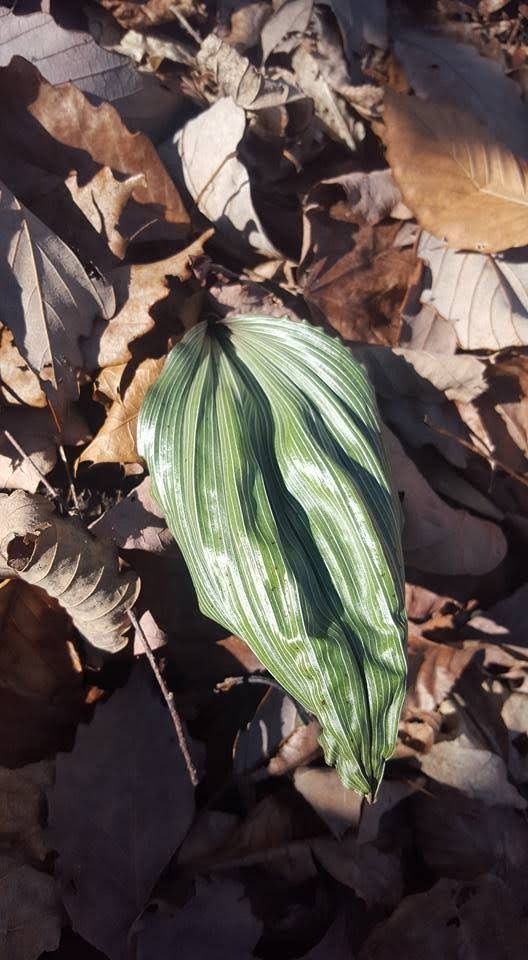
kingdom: Plantae
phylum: Tracheophyta
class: Liliopsida
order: Asparagales
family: Orchidaceae
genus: Aplectrum
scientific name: Aplectrum hyemale
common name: Adam-and-eve
